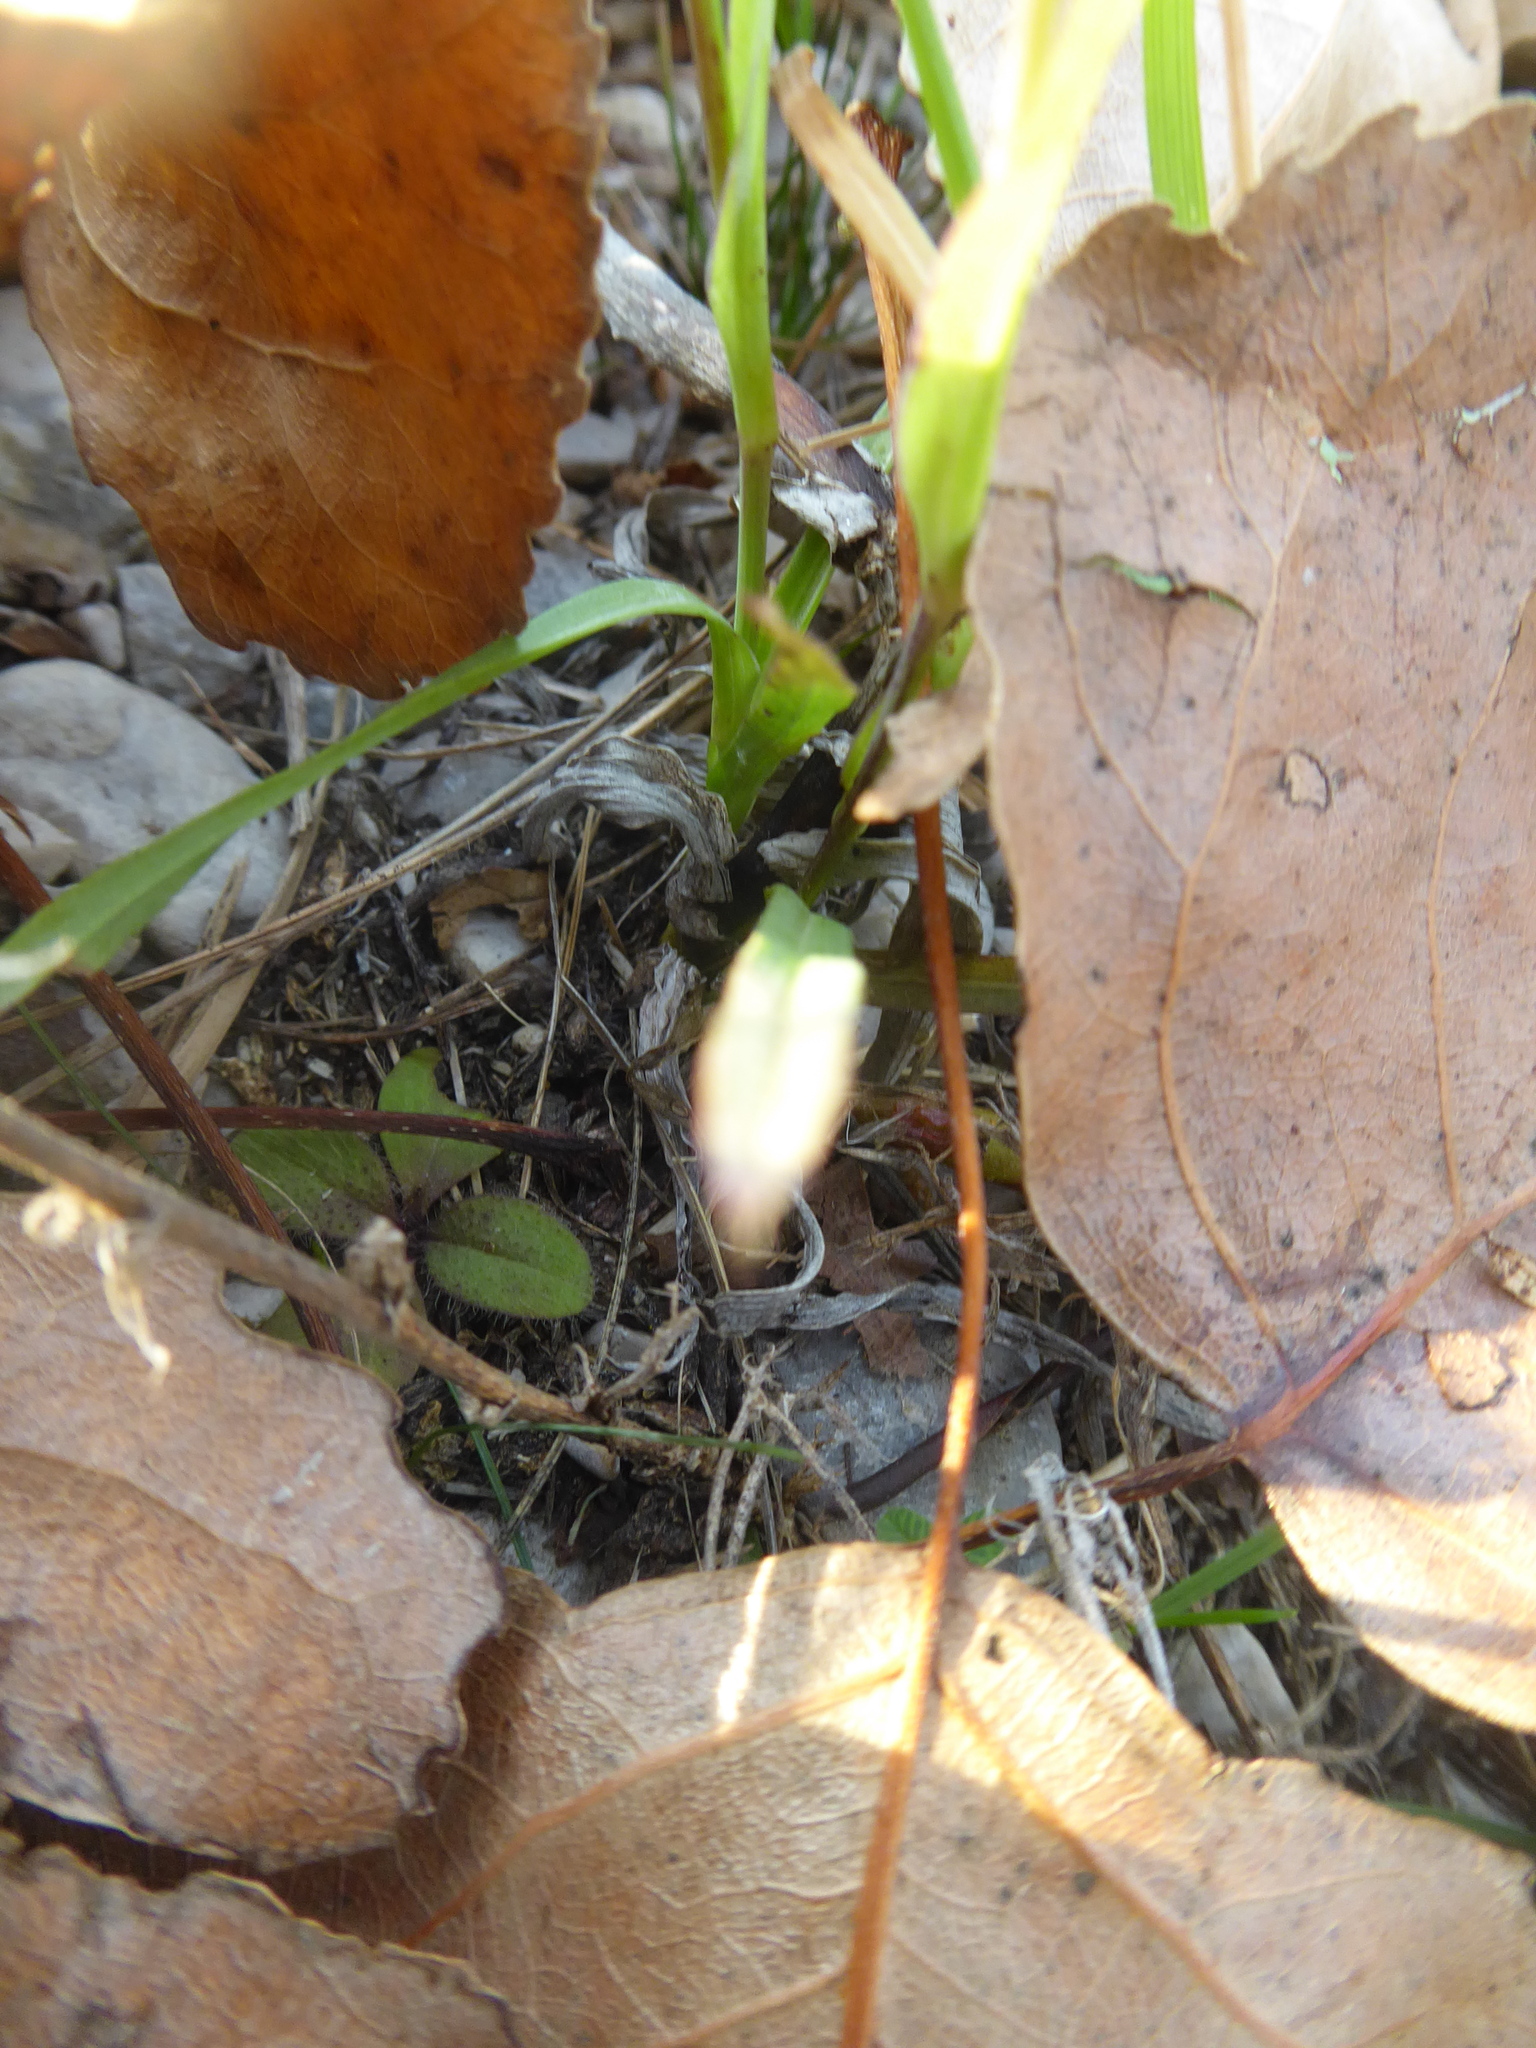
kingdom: Plantae
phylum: Tracheophyta
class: Magnoliopsida
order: Asterales
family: Asteraceae
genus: Tragopogon
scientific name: Tragopogon orientalis
